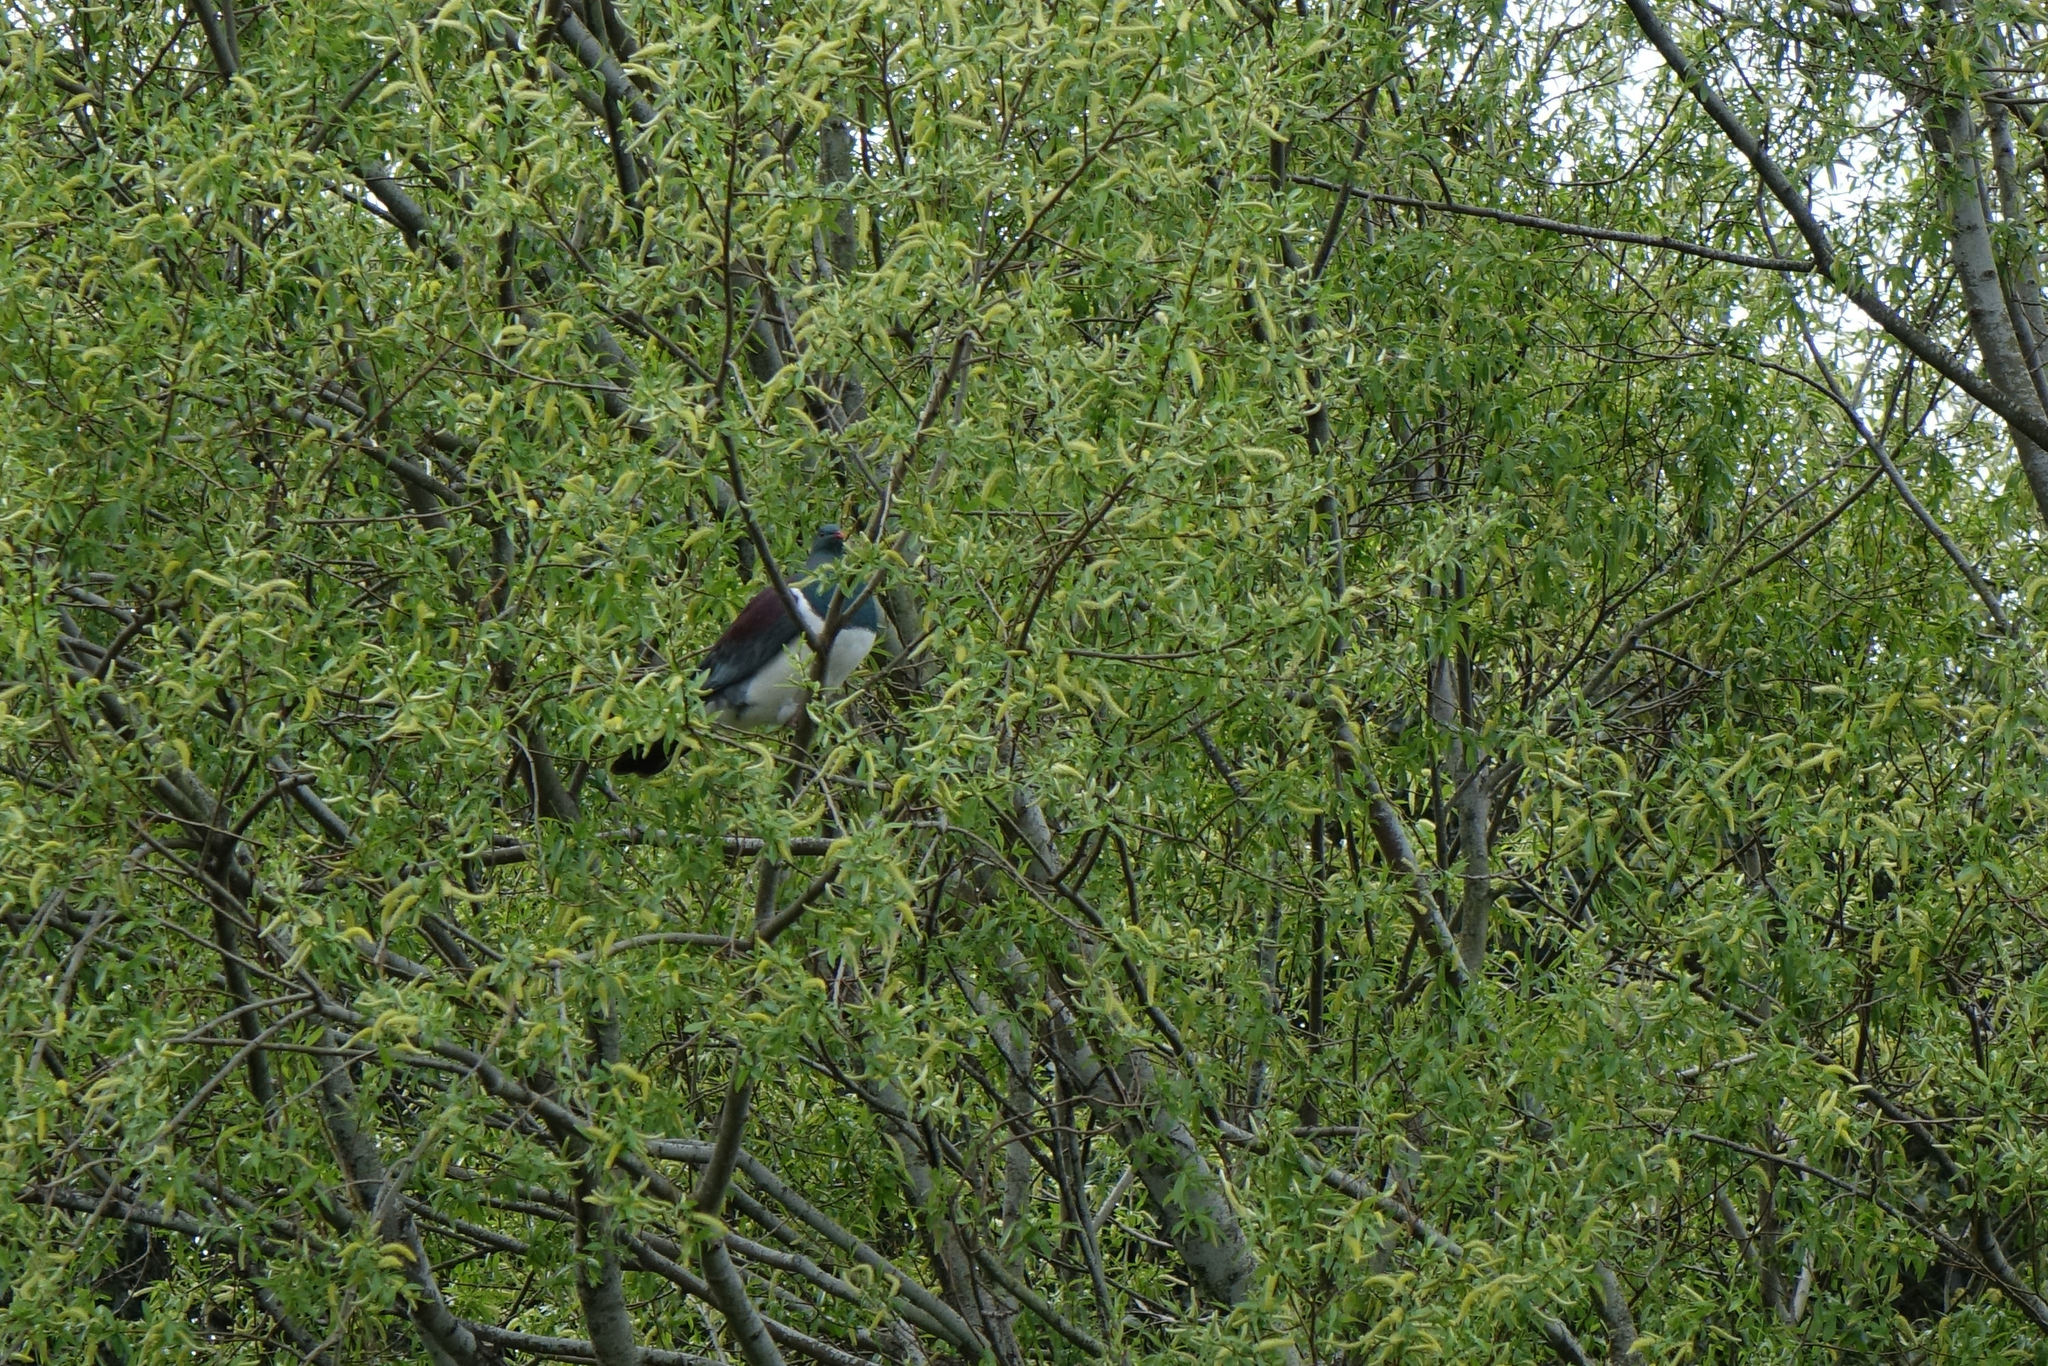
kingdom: Animalia
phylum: Chordata
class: Aves
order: Columbiformes
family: Columbidae
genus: Hemiphaga
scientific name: Hemiphaga novaeseelandiae
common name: New zealand pigeon
